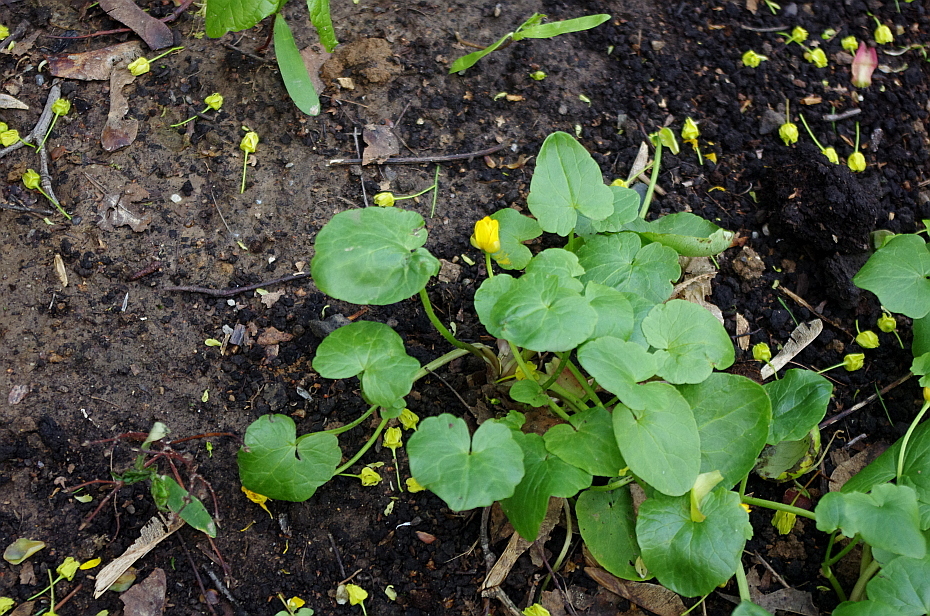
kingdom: Plantae
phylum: Tracheophyta
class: Magnoliopsida
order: Ranunculales
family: Ranunculaceae
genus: Ficaria
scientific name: Ficaria verna
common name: Lesser celandine
